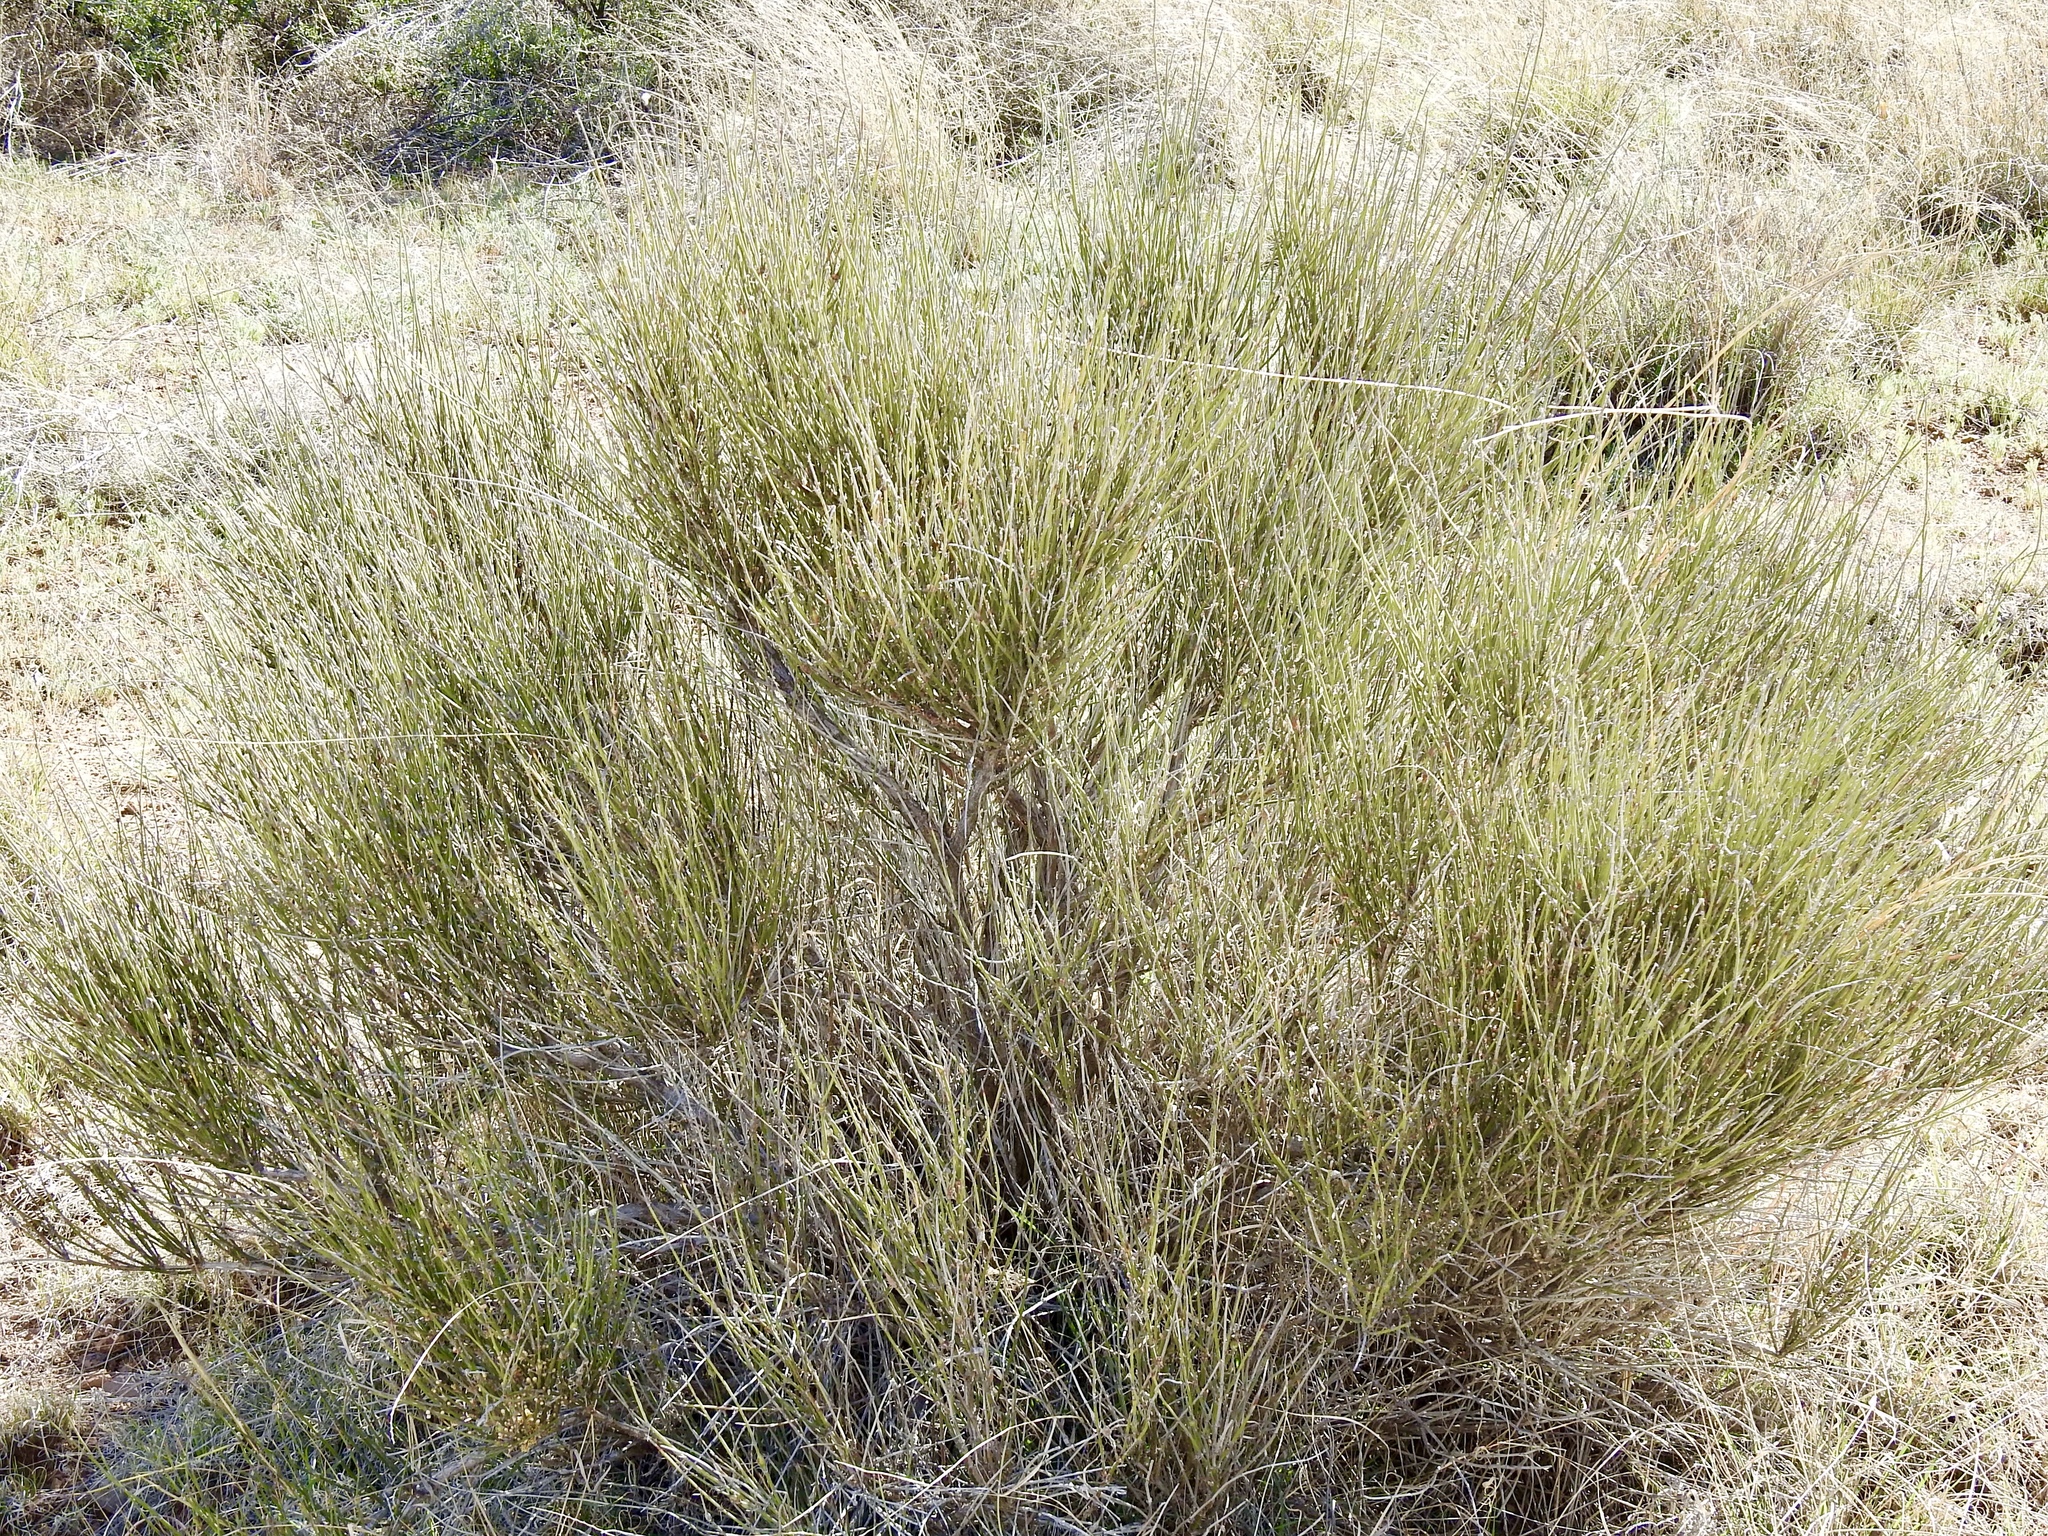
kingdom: Plantae
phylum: Tracheophyta
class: Gnetopsida
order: Ephedrales
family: Ephedraceae
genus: Ephedra
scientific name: Ephedra trifurca
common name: Mexican-tea
